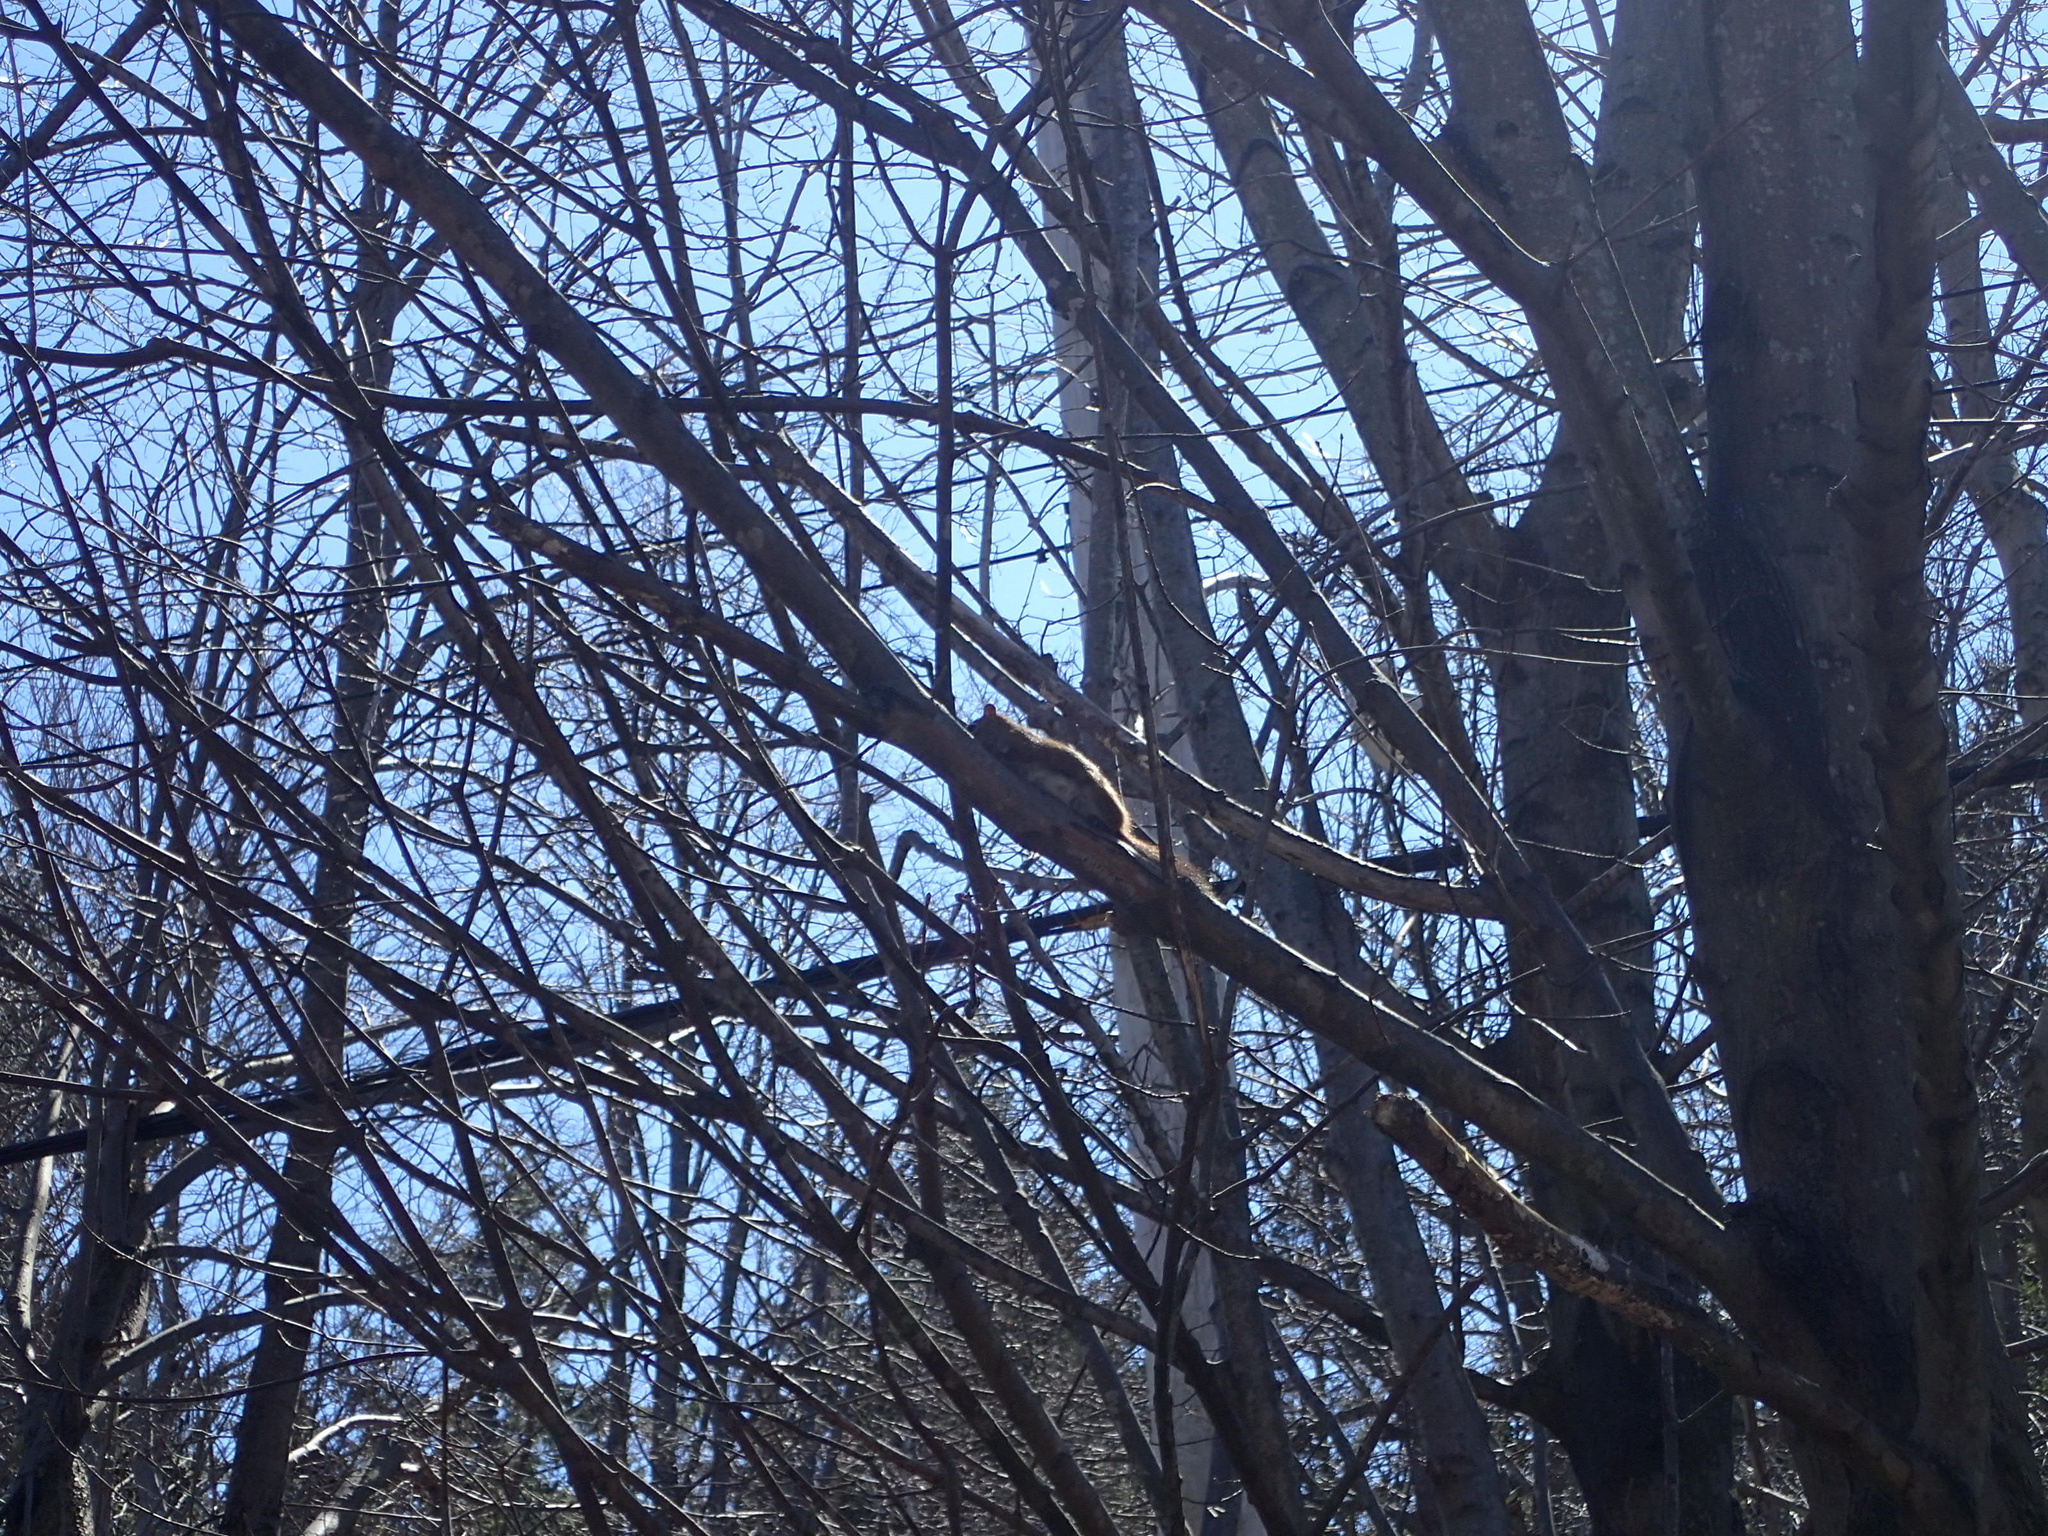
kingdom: Animalia
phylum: Chordata
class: Mammalia
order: Rodentia
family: Sciuridae
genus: Tamiasciurus
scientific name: Tamiasciurus hudsonicus
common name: Red squirrel
